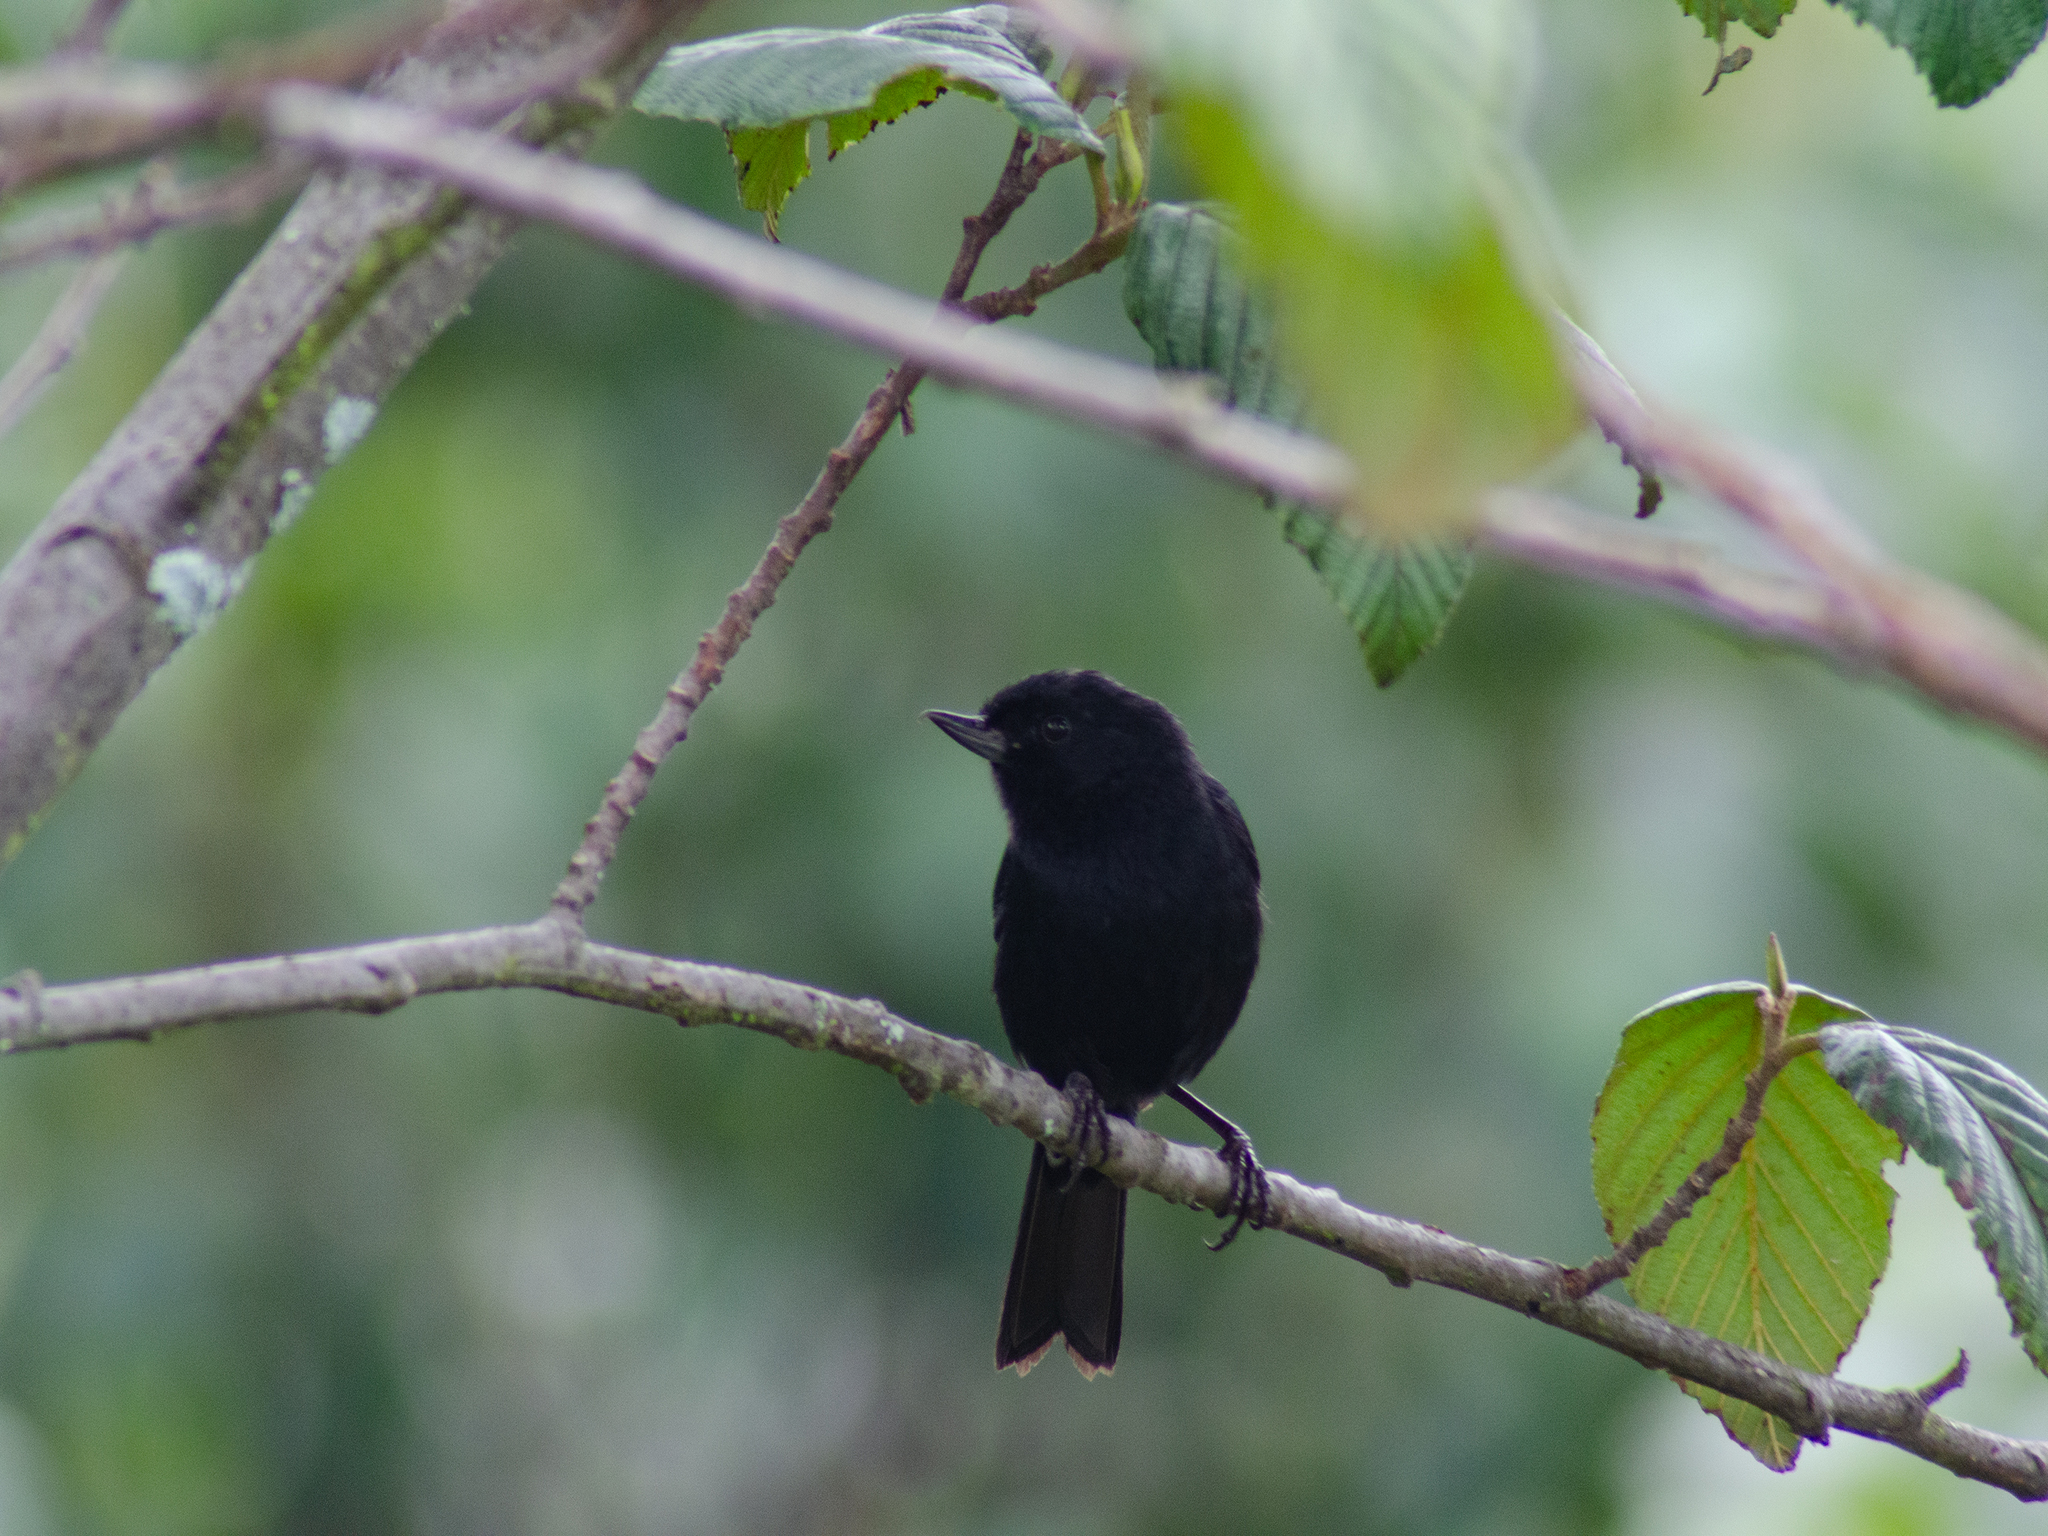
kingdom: Animalia
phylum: Chordata
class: Aves
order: Passeriformes
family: Thraupidae
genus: Diglossa
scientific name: Diglossa humeralis
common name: Black flowerpiercer
